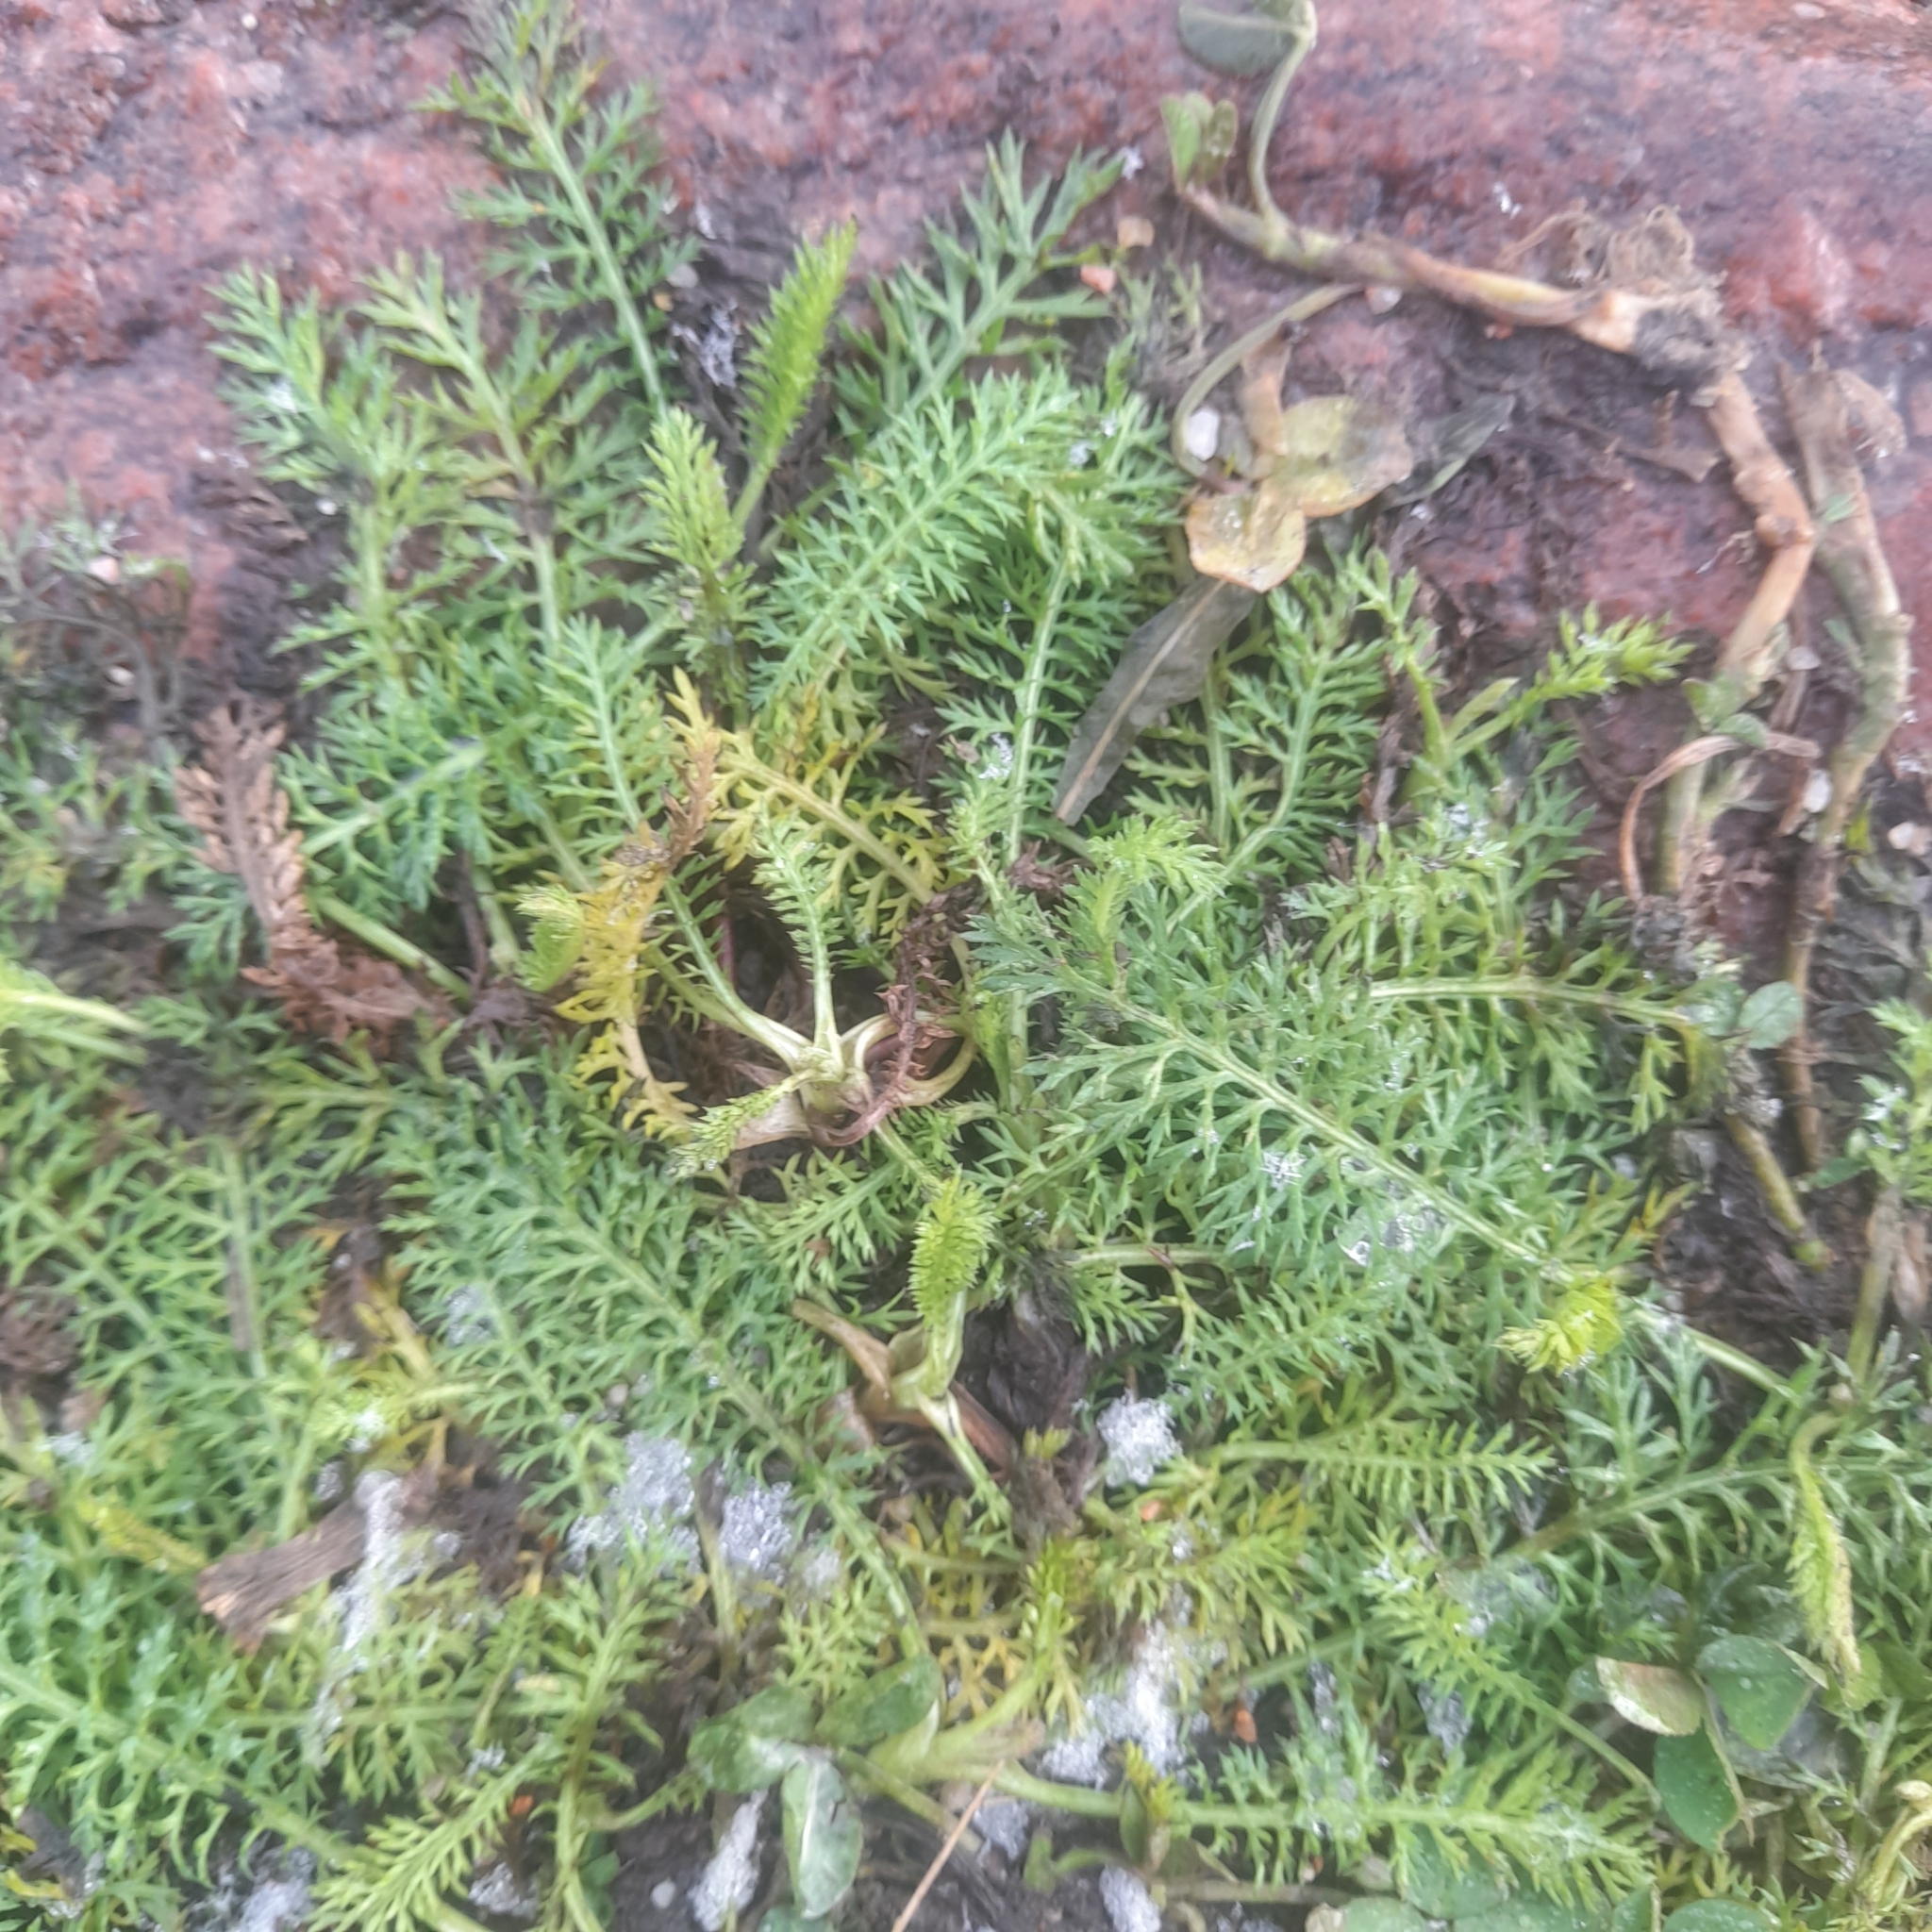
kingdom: Plantae
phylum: Tracheophyta
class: Magnoliopsida
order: Asterales
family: Asteraceae
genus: Achillea
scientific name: Achillea millefolium
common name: Yarrow
